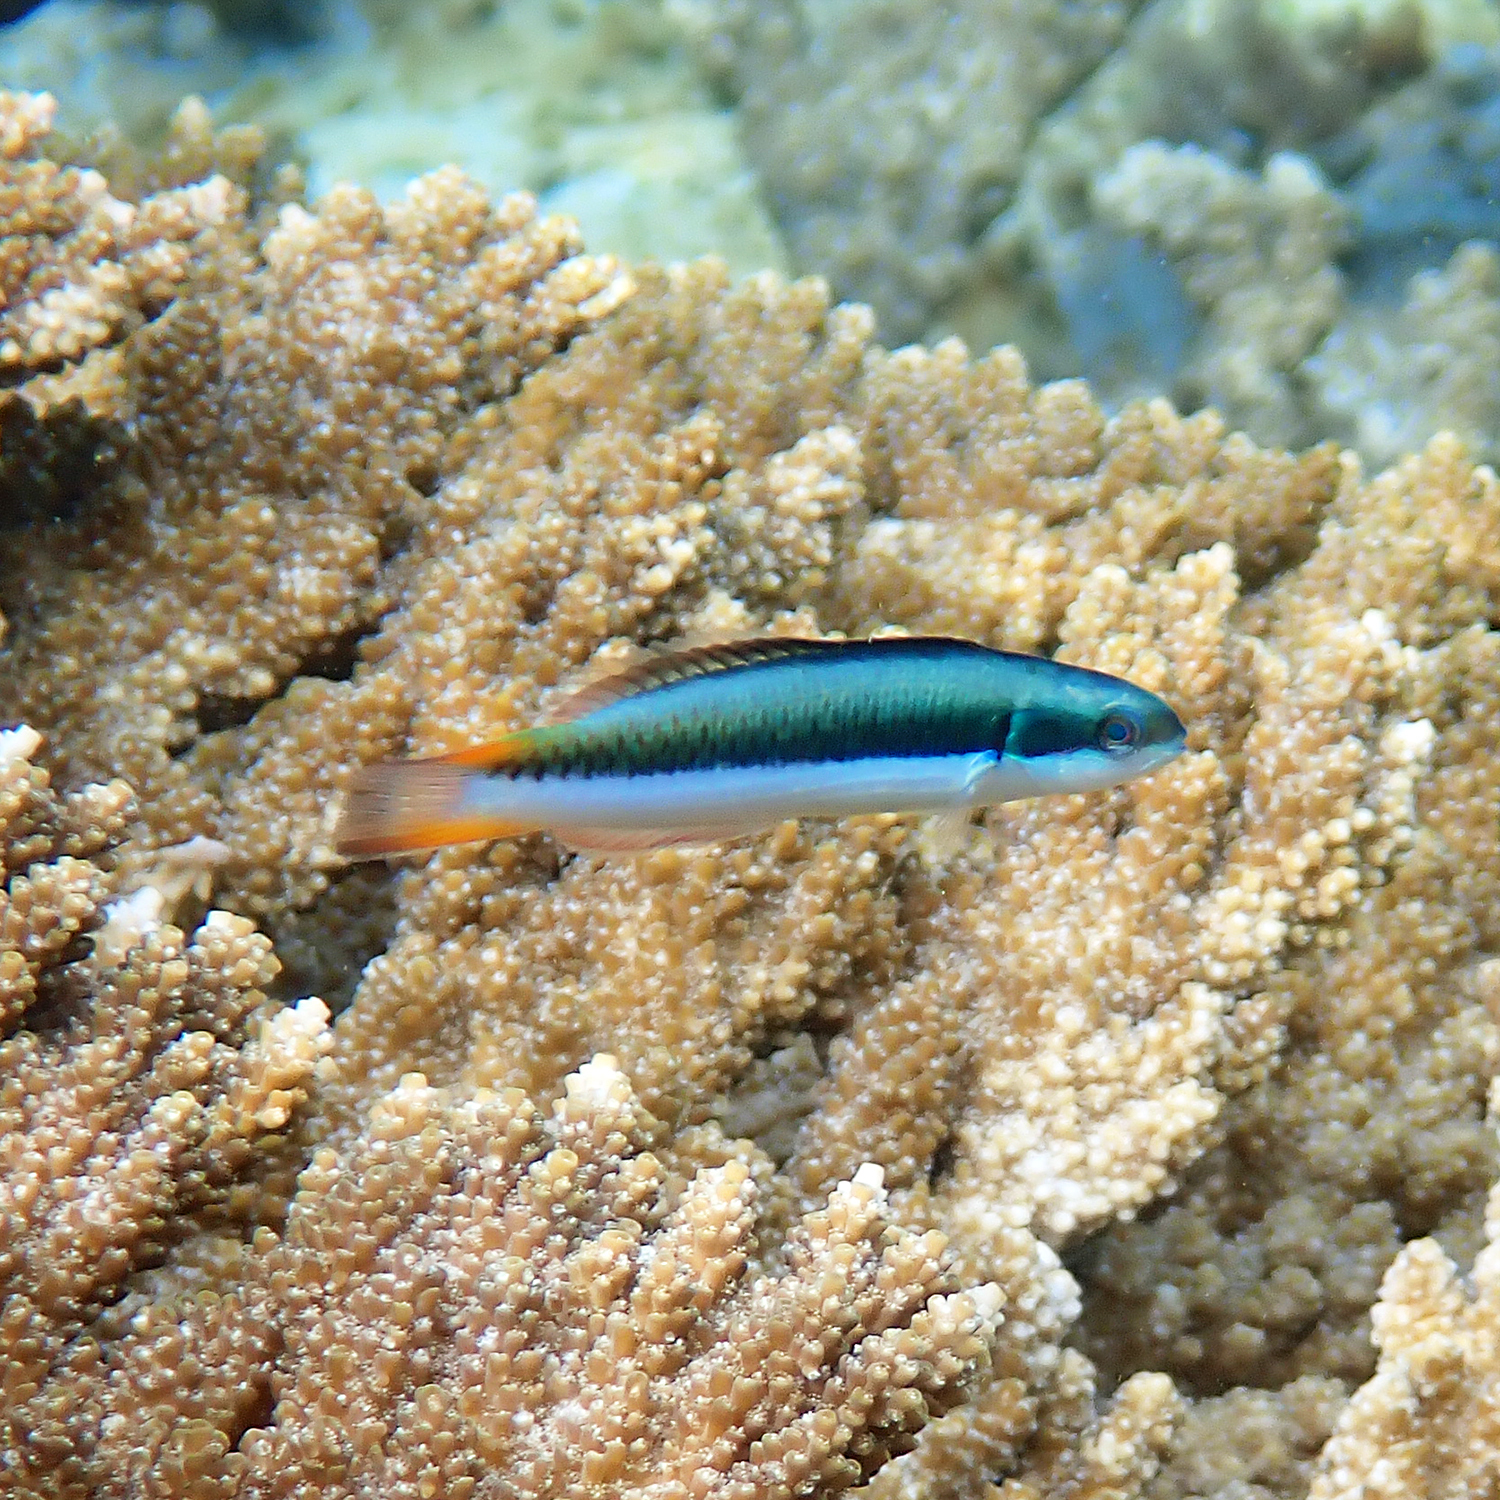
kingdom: Animalia
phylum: Chordata
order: Perciformes
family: Labridae
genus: Thalassoma
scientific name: Thalassoma amblycephalum
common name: Bluehead wrasse
